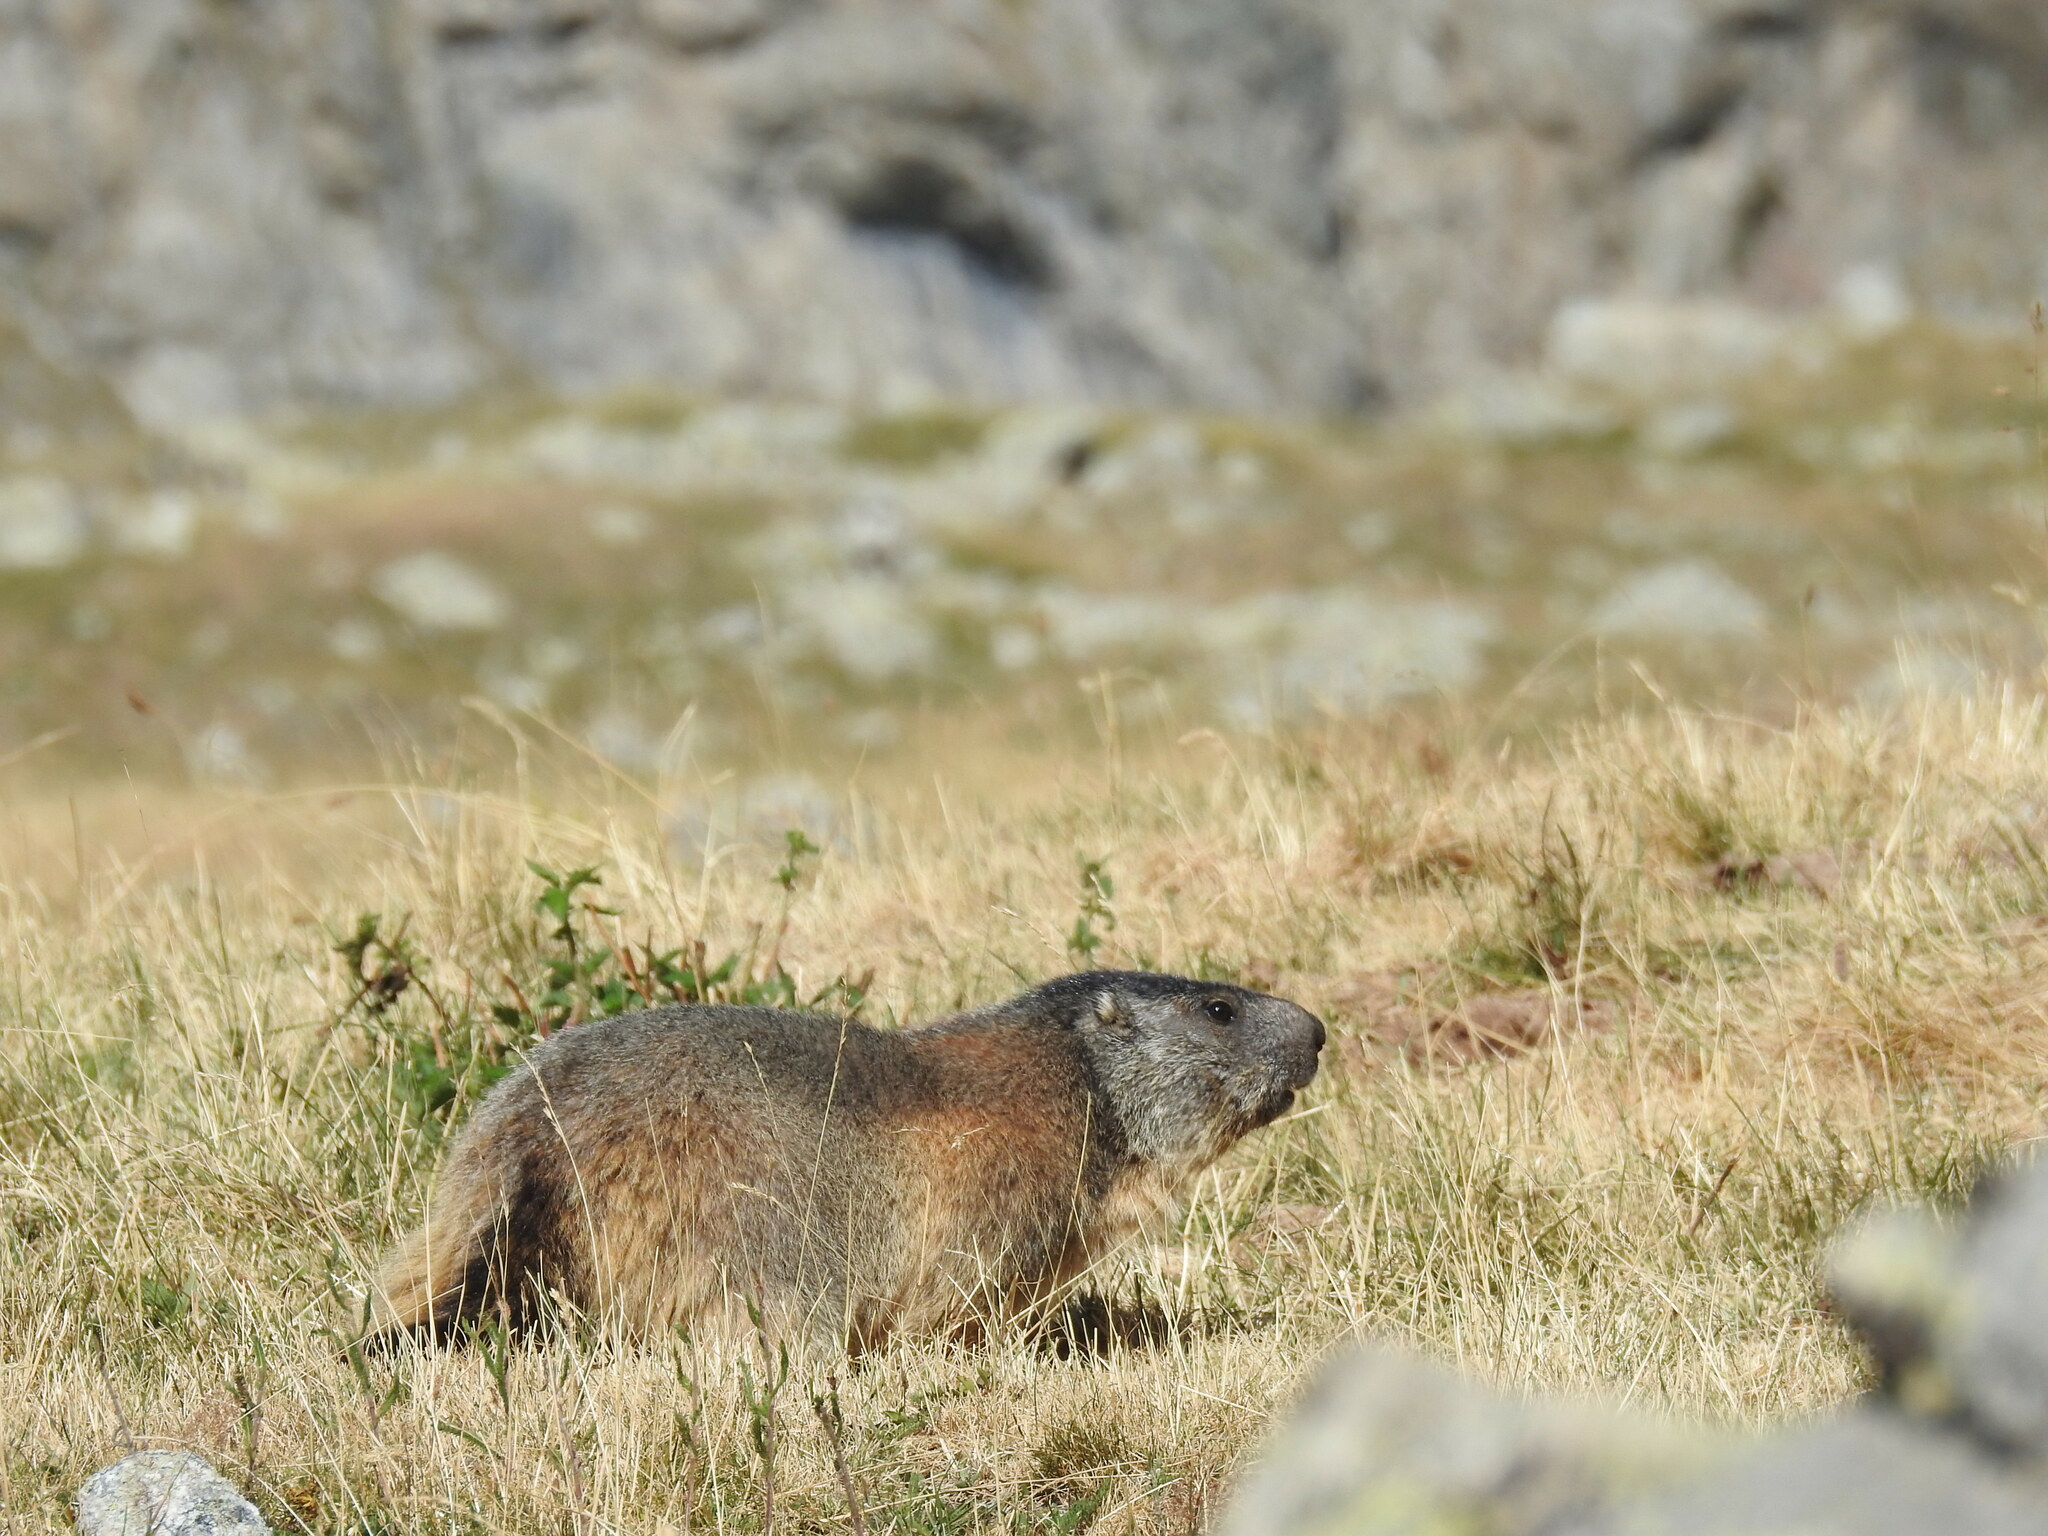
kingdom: Animalia
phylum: Chordata
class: Mammalia
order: Rodentia
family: Sciuridae
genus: Marmota
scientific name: Marmota marmota
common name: Alpine marmot
